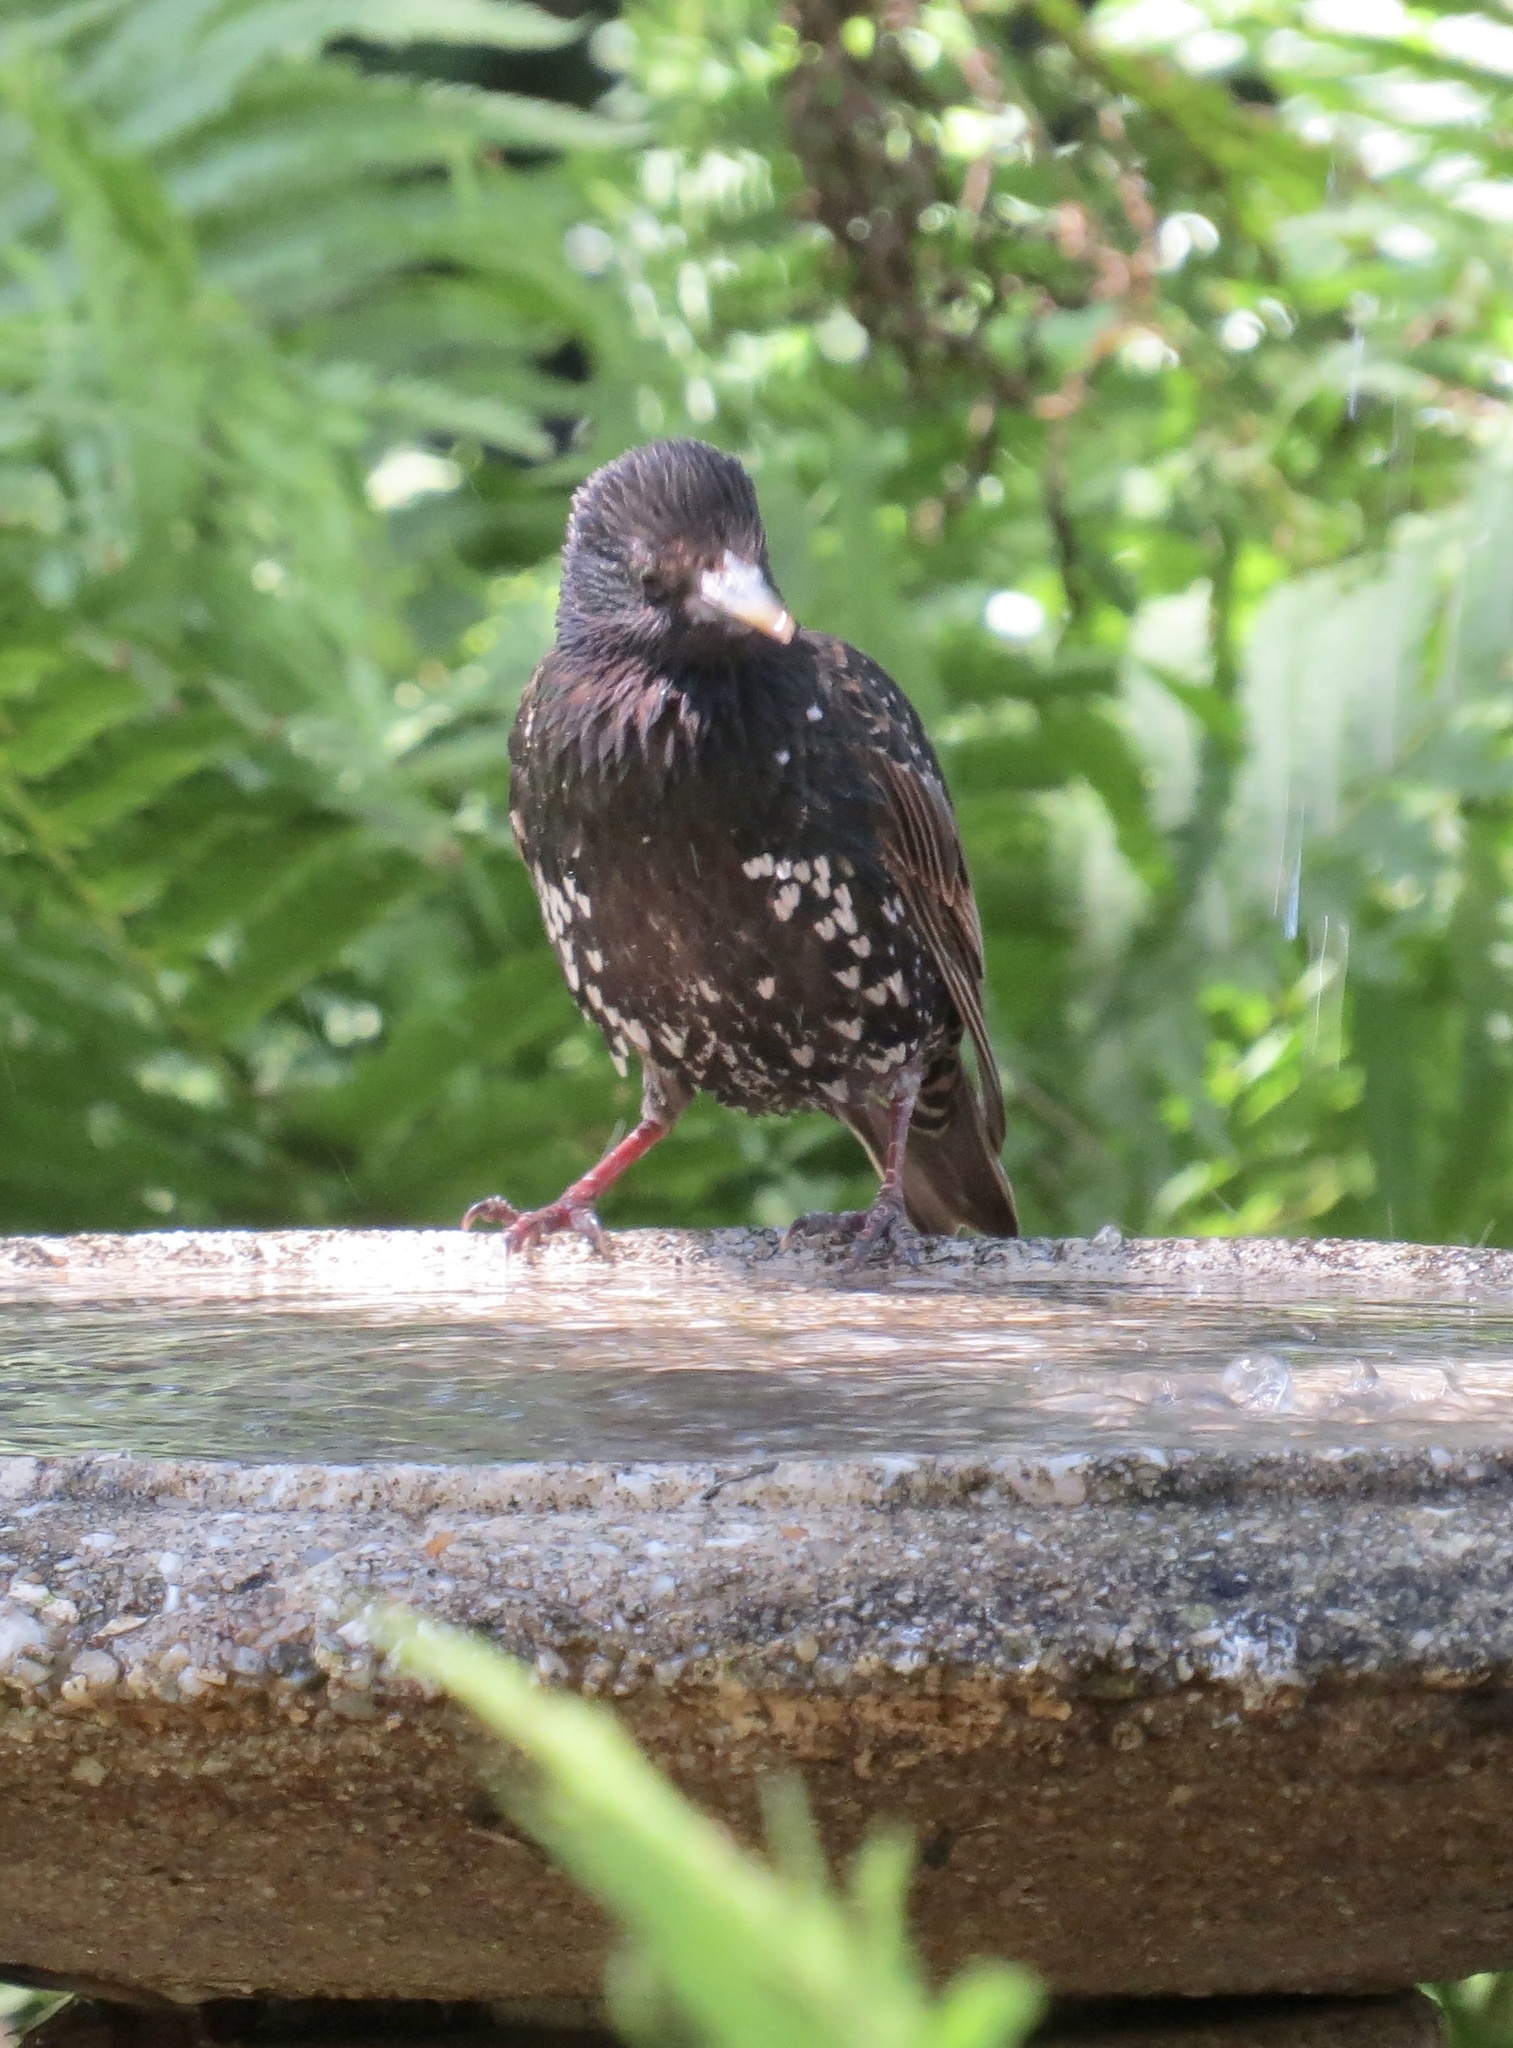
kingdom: Animalia
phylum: Chordata
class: Aves
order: Passeriformes
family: Sturnidae
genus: Sturnus
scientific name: Sturnus vulgaris
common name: Common starling
